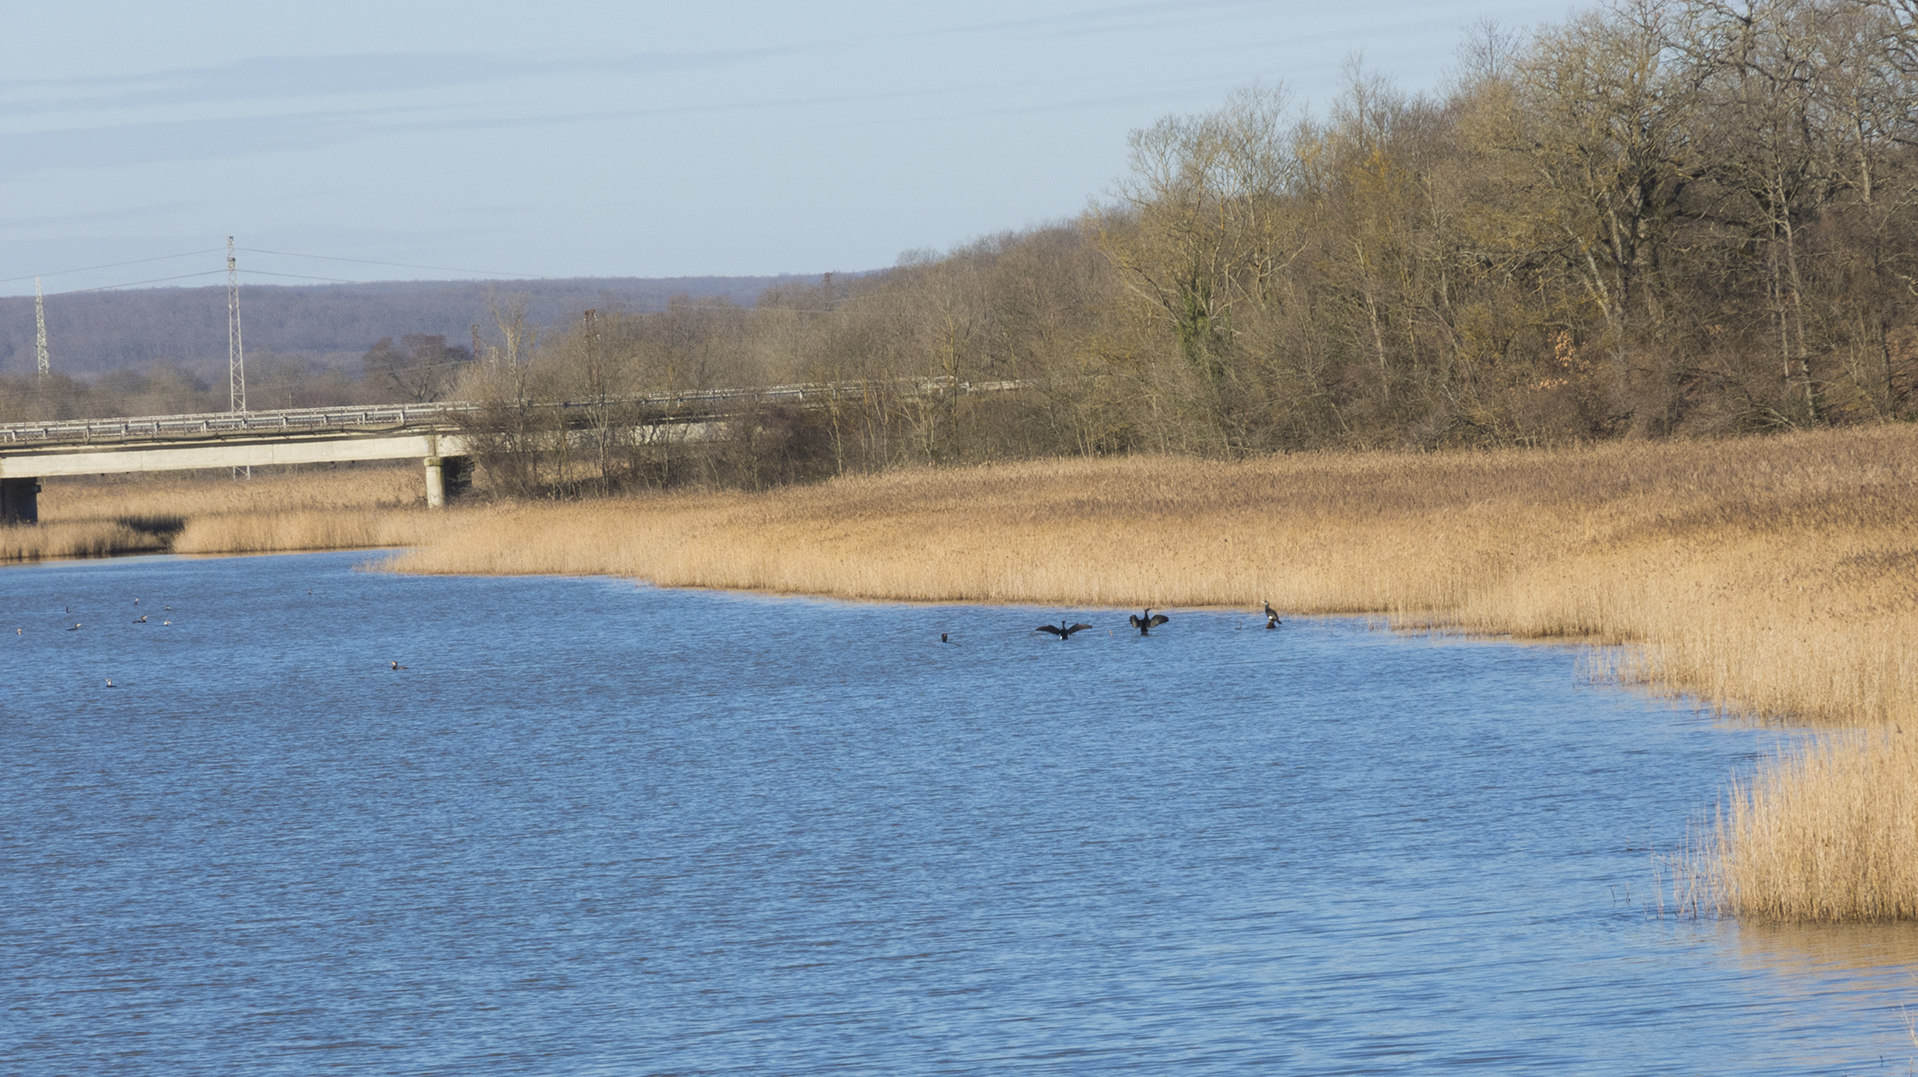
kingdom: Animalia
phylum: Chordata
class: Aves
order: Suliformes
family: Phalacrocoracidae
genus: Phalacrocorax
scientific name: Phalacrocorax carbo
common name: Great cormorant
